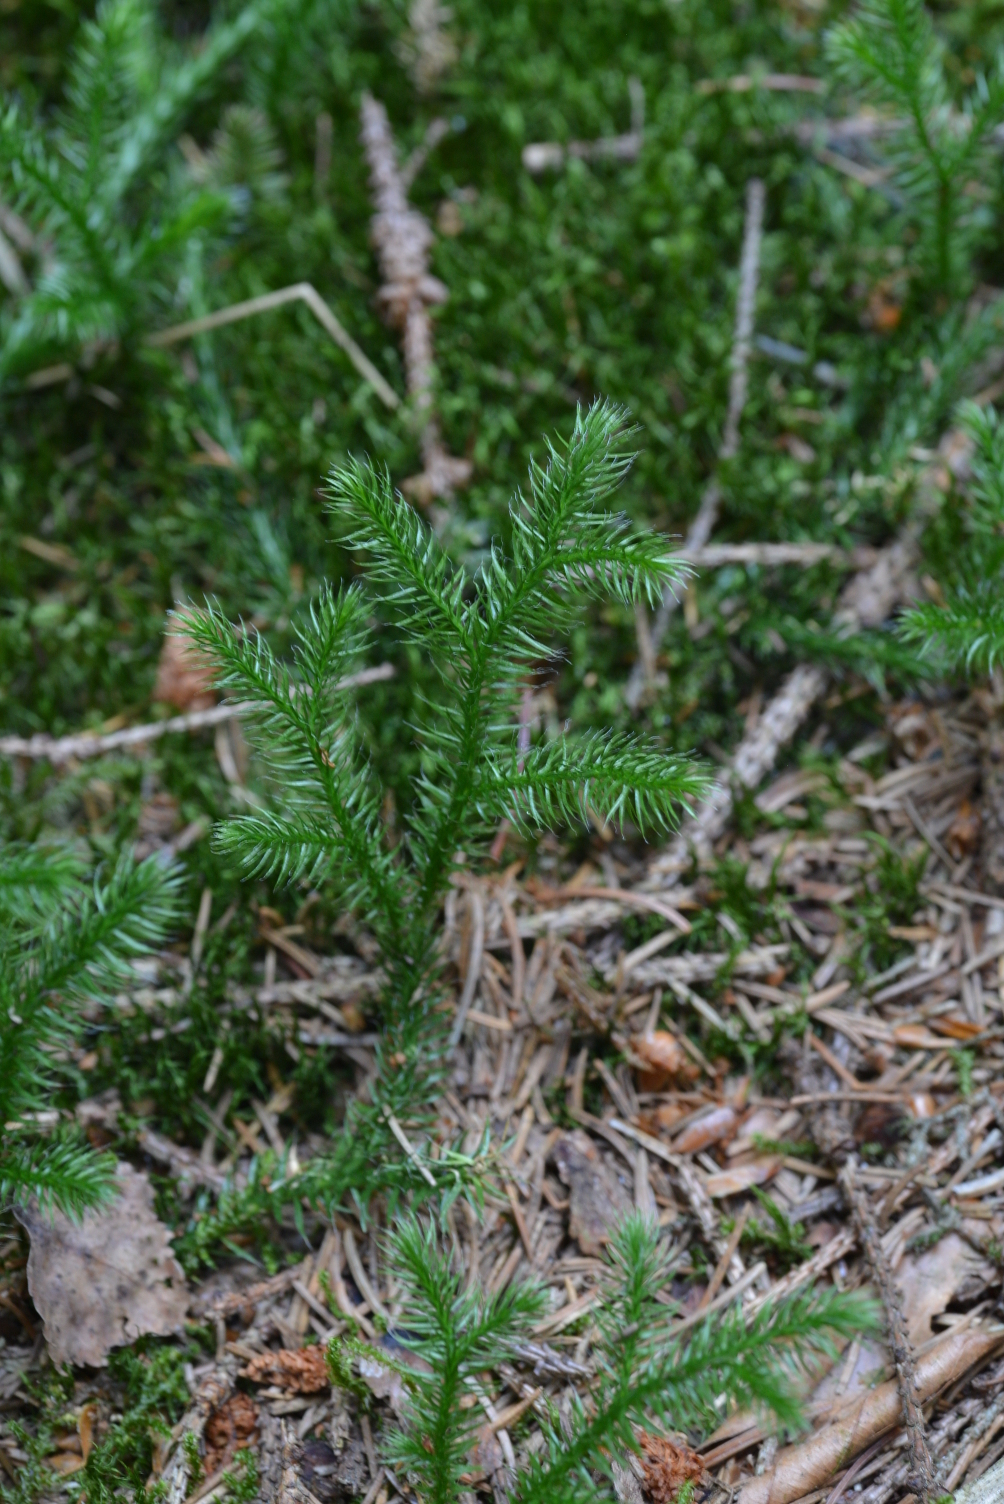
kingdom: Plantae
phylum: Tracheophyta
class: Lycopodiopsida
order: Lycopodiales
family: Lycopodiaceae
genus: Lycopodium
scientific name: Lycopodium clavatum
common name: Stag's-horn clubmoss
